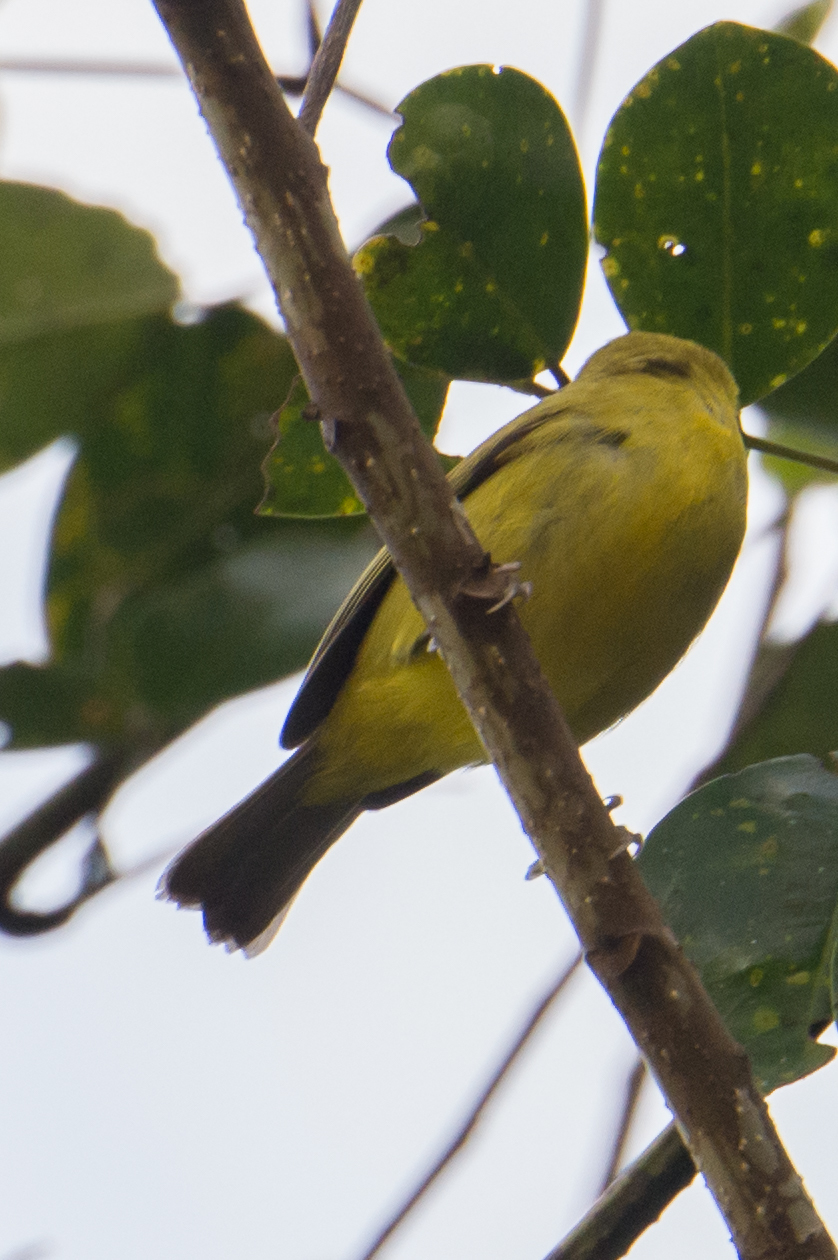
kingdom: Animalia
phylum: Chordata
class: Aves
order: Passeriformes
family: Zosteropidae
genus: Zosterops
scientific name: Zosterops chloris
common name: Lemon-bellied white-eye
